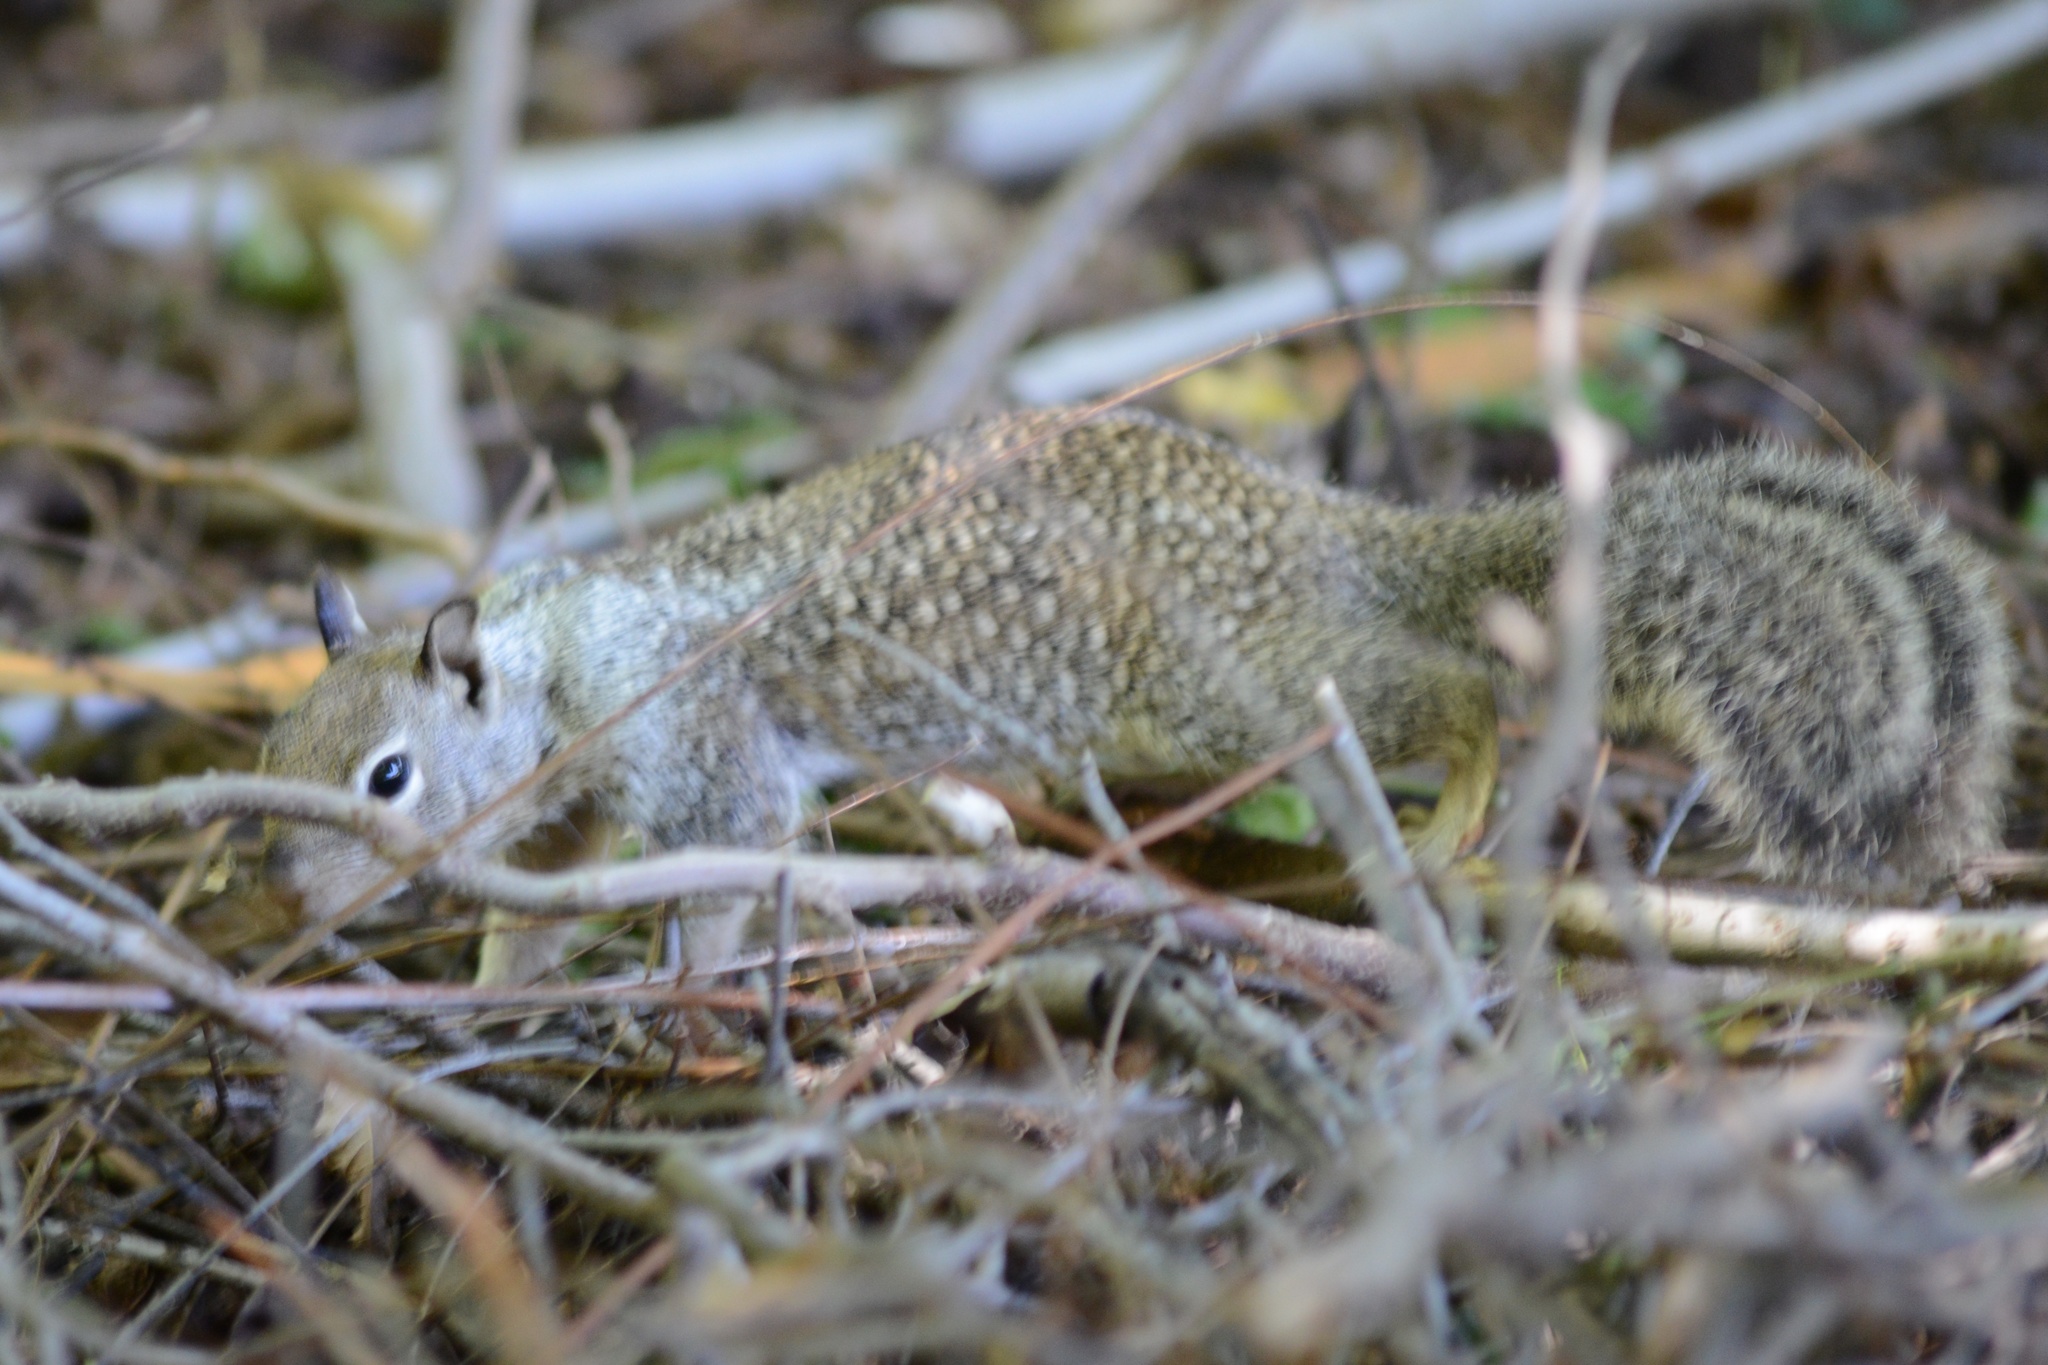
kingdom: Animalia
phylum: Chordata
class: Mammalia
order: Rodentia
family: Sciuridae
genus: Otospermophilus
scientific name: Otospermophilus beecheyi
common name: California ground squirrel
